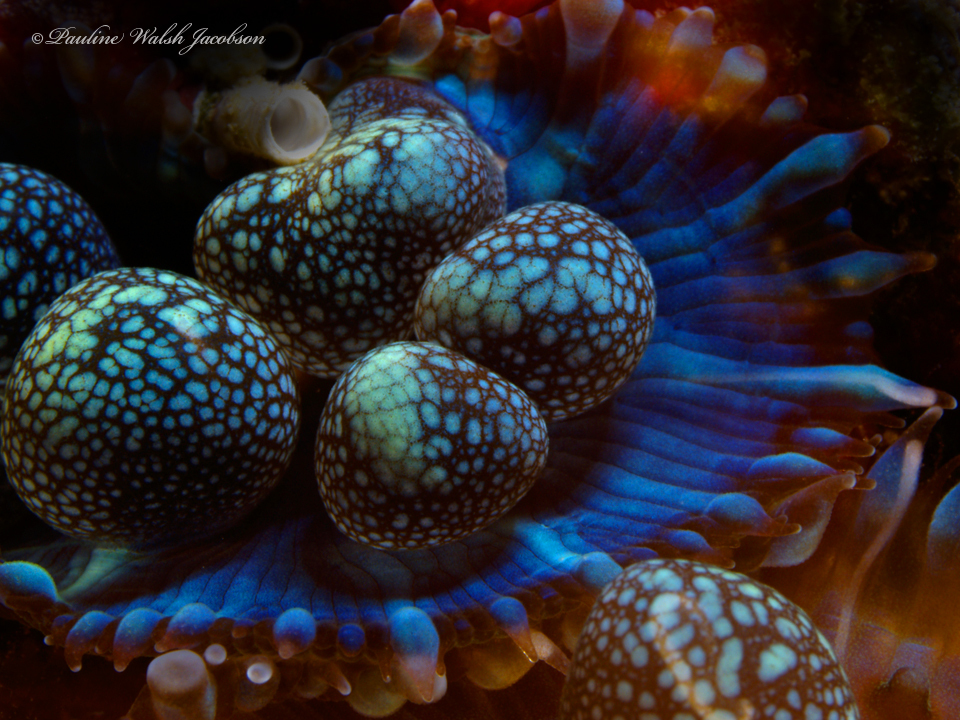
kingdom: Animalia
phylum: Cnidaria
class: Anthozoa
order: Corallimorpharia
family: Discosomidae
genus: Rhodactis
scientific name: Rhodactis osculifera
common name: Warty corallimorph
